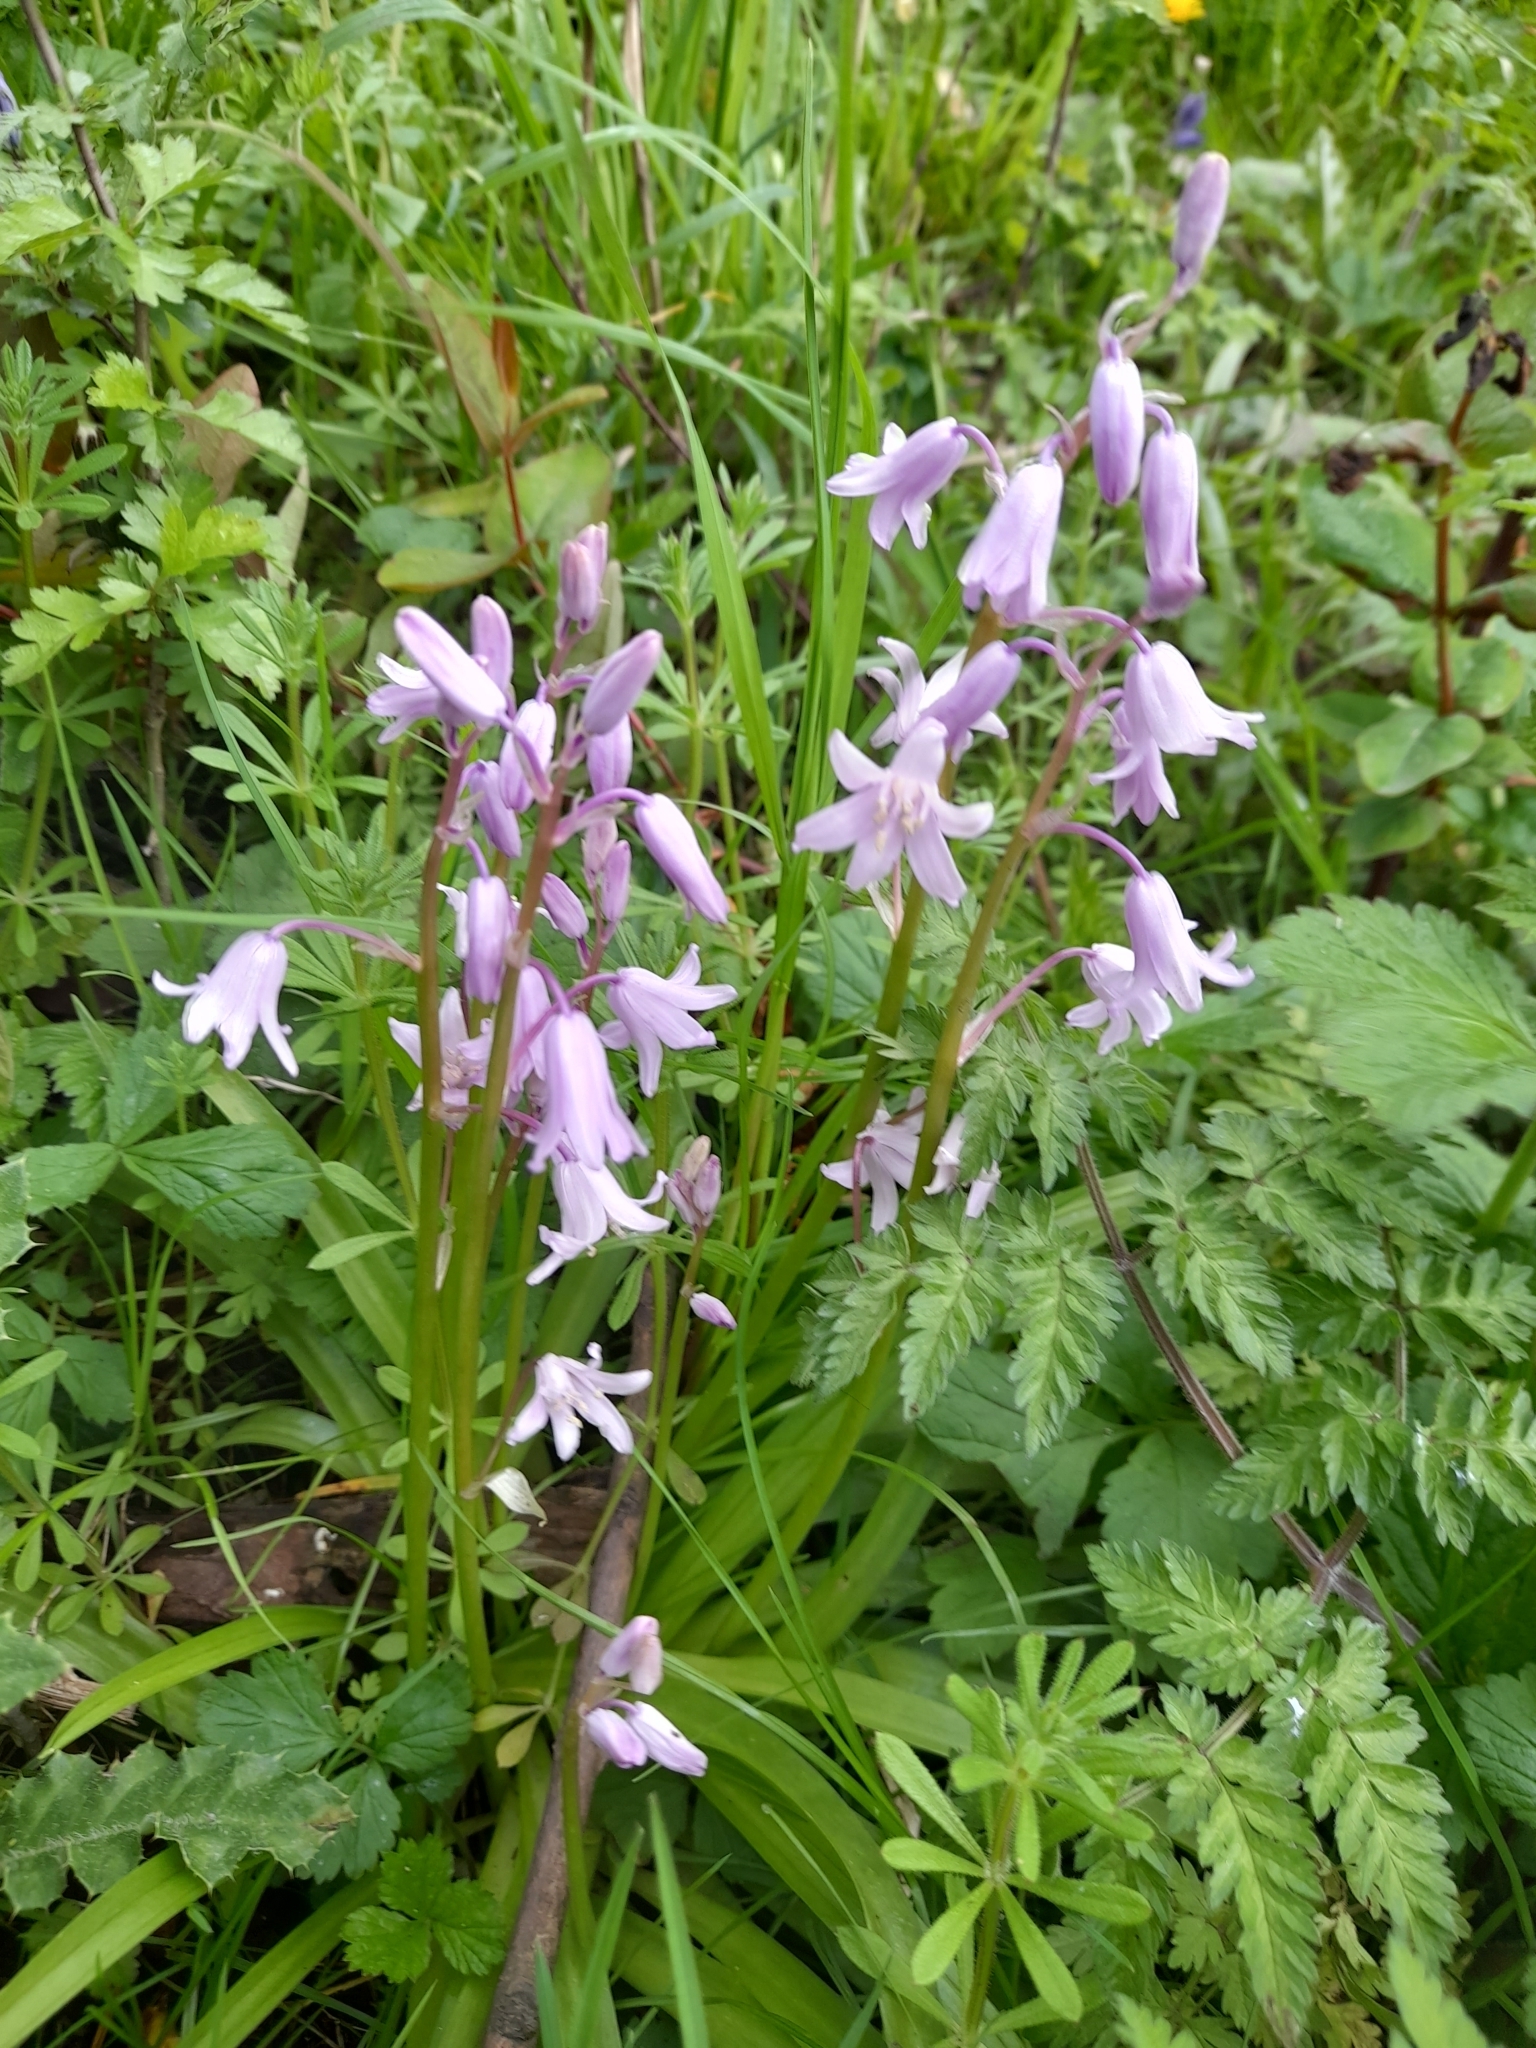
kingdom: Plantae
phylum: Tracheophyta
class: Liliopsida
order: Asparagales
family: Asparagaceae
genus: Hyacinthoides
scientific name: Hyacinthoides hispanica
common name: Spanish bluebell
